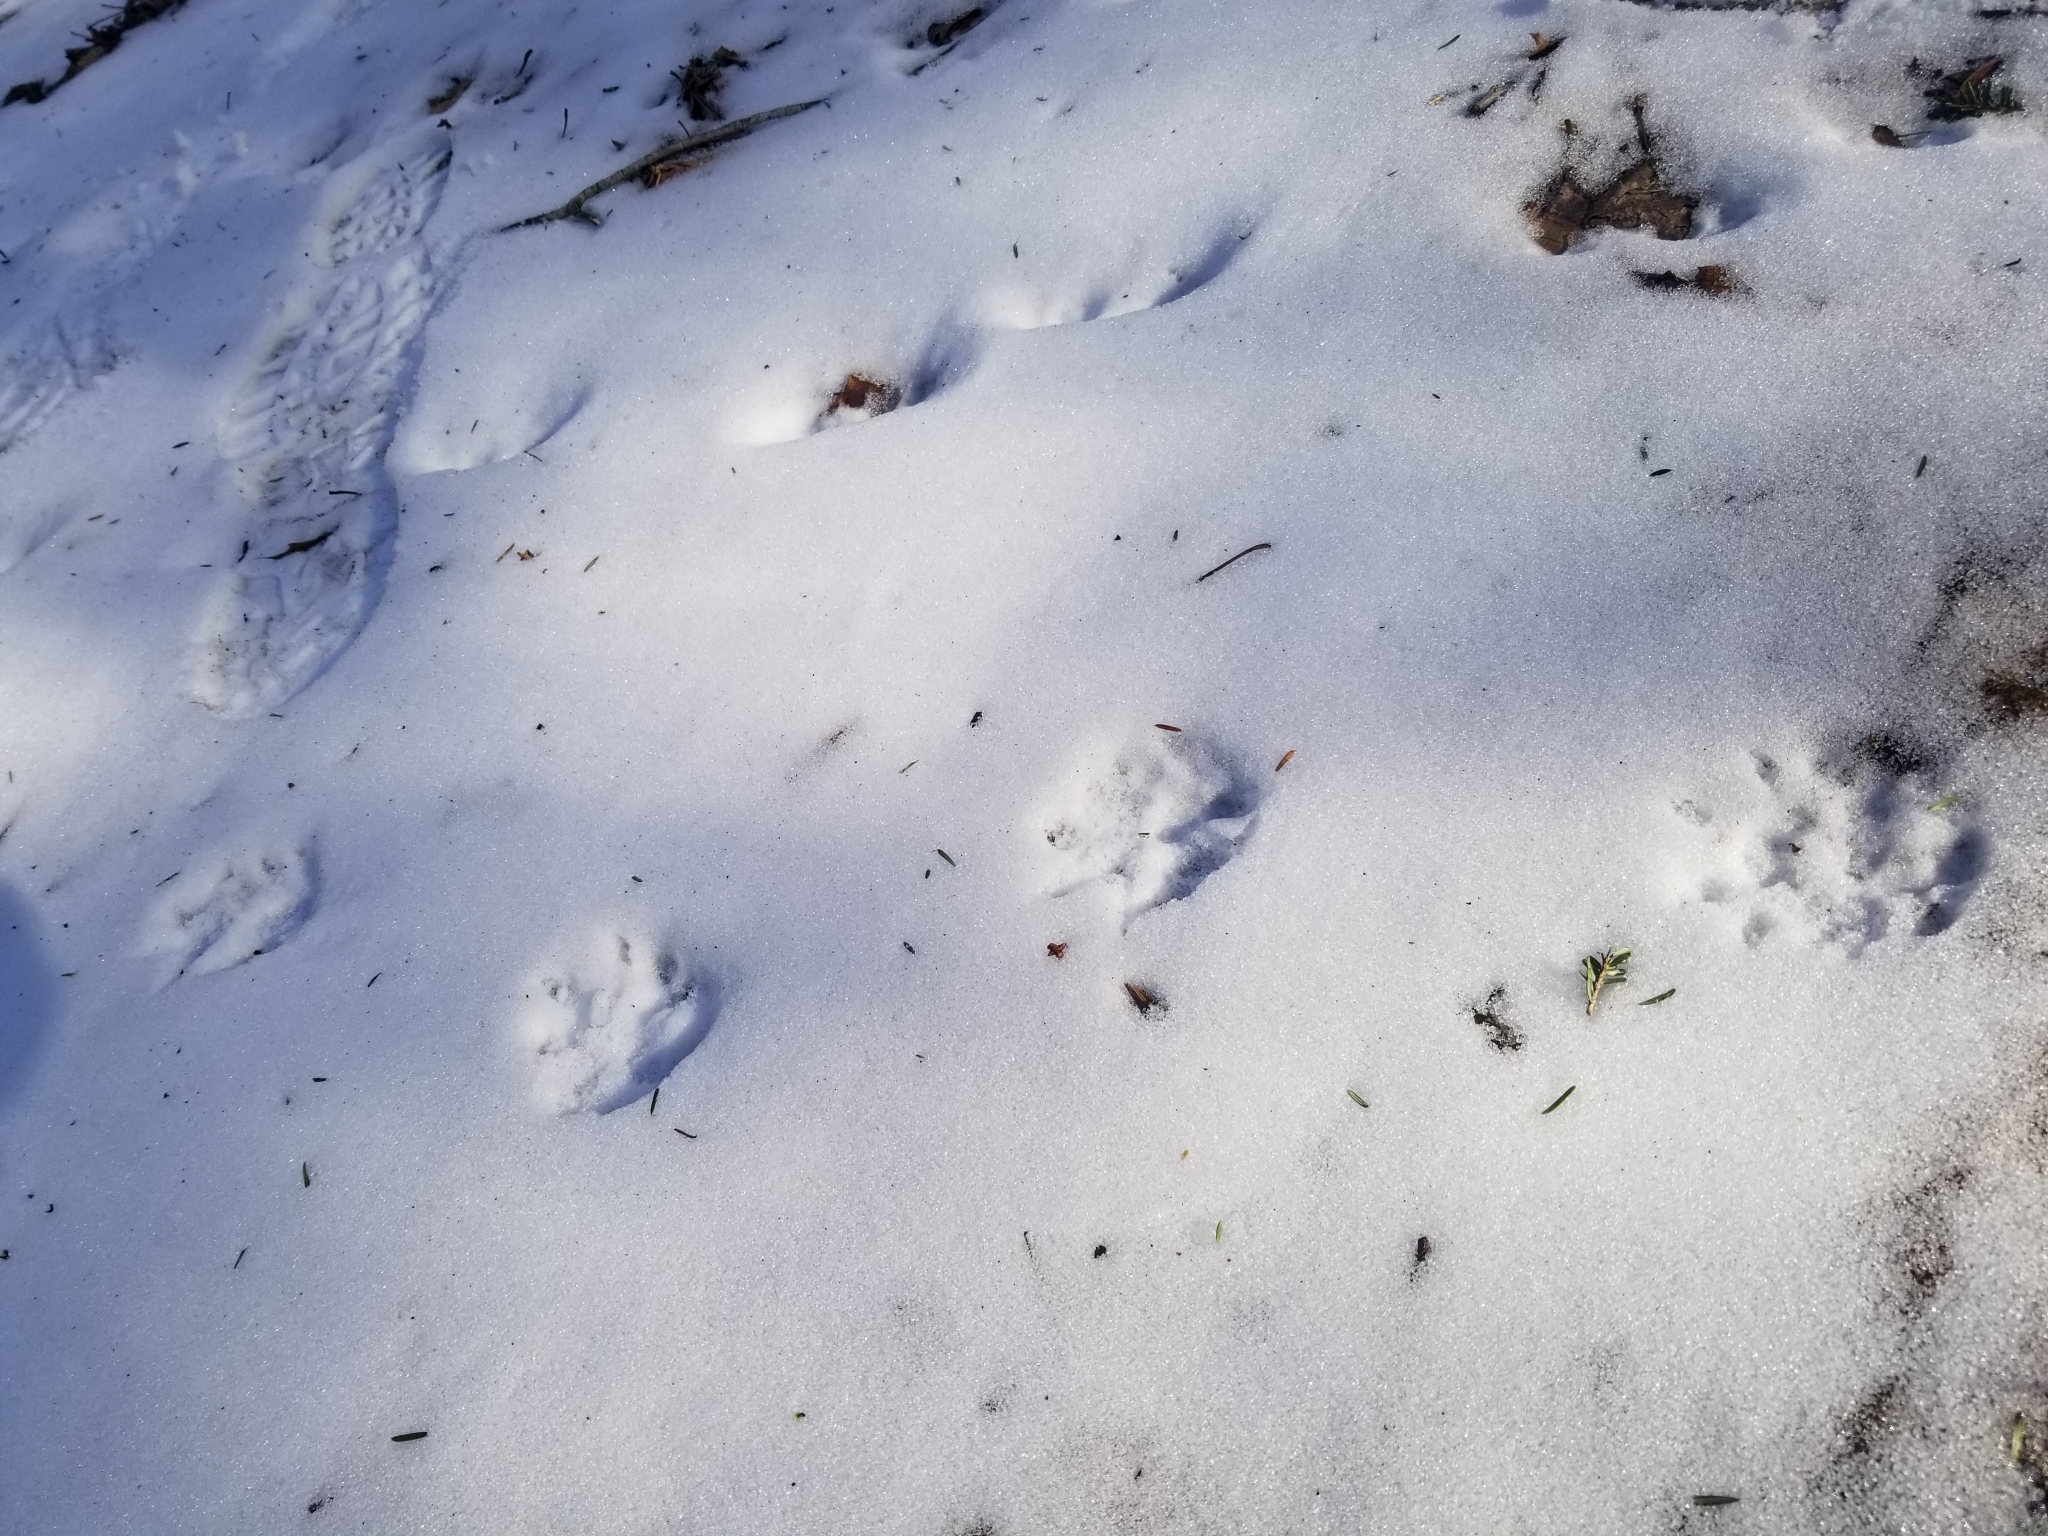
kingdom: Animalia
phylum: Chordata
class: Mammalia
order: Didelphimorphia
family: Didelphidae
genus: Didelphis
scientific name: Didelphis virginiana
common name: Virginia opossum
